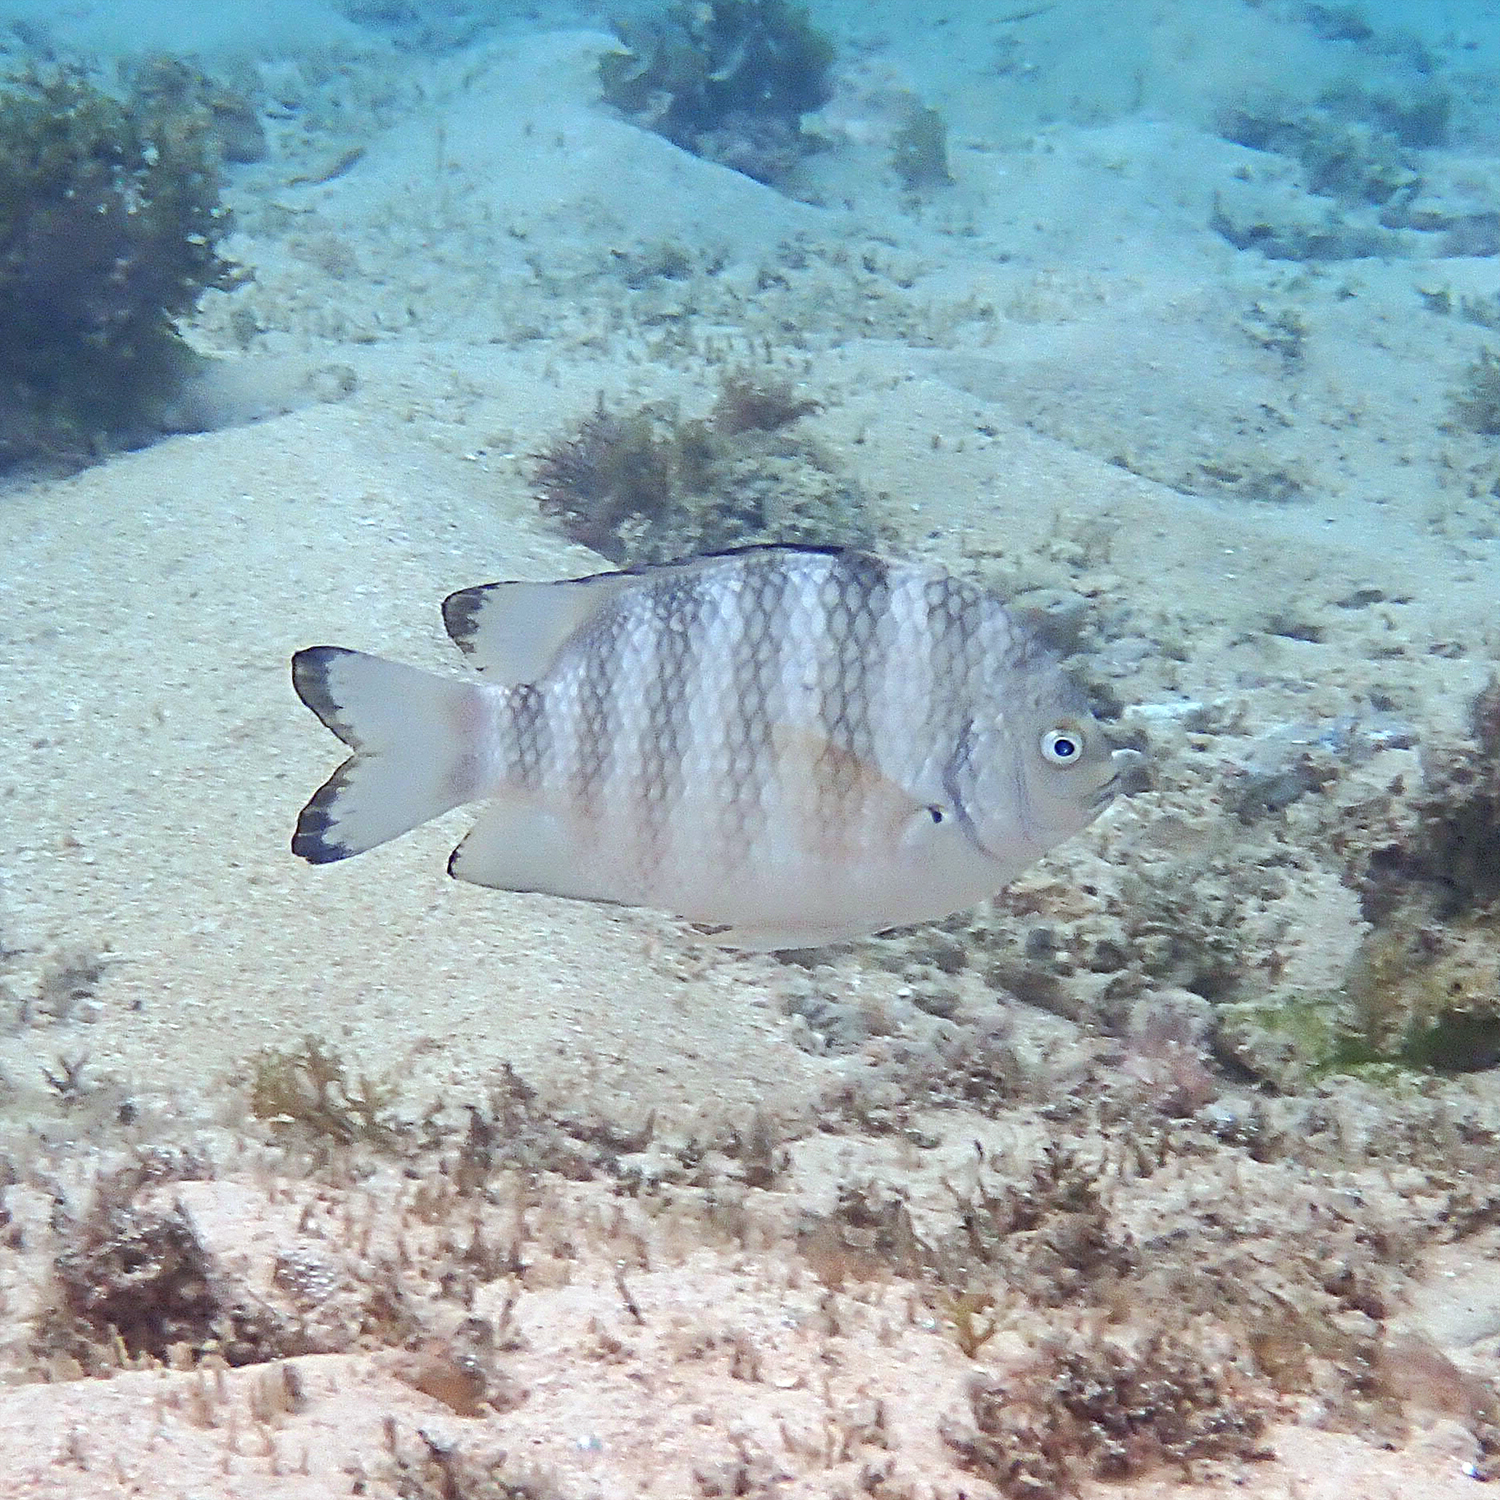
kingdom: Animalia
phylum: Chordata
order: Perciformes
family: Pomacentridae
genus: Abudefduf
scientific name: Abudefduf septemfasciatus
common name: Banded sergeant
